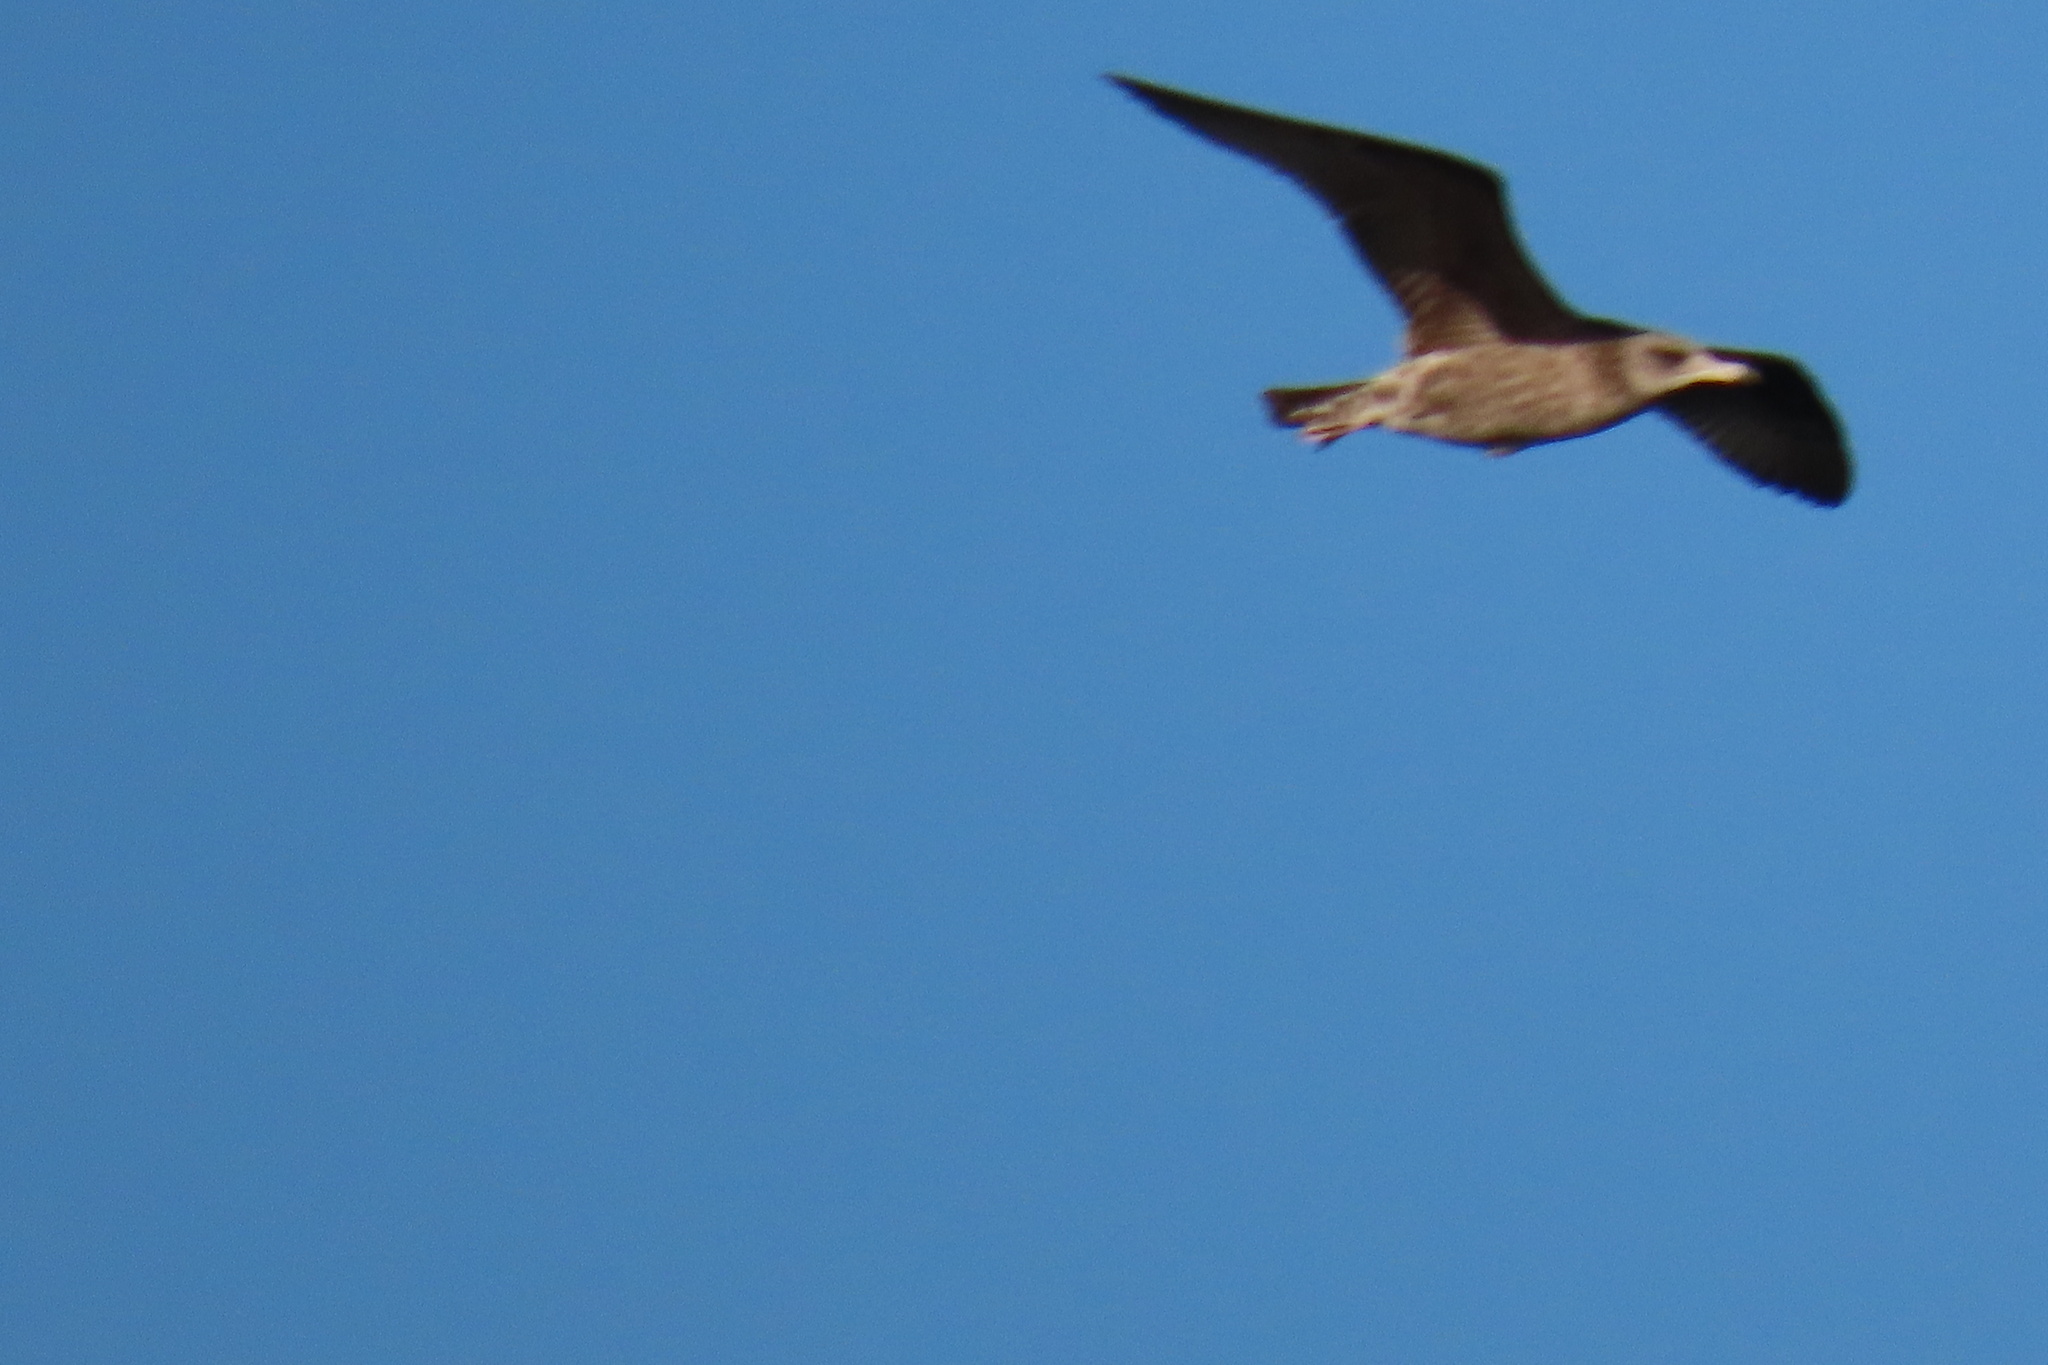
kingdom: Animalia
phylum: Chordata
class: Aves
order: Charadriiformes
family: Laridae
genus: Larus
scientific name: Larus californicus
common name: California gull
